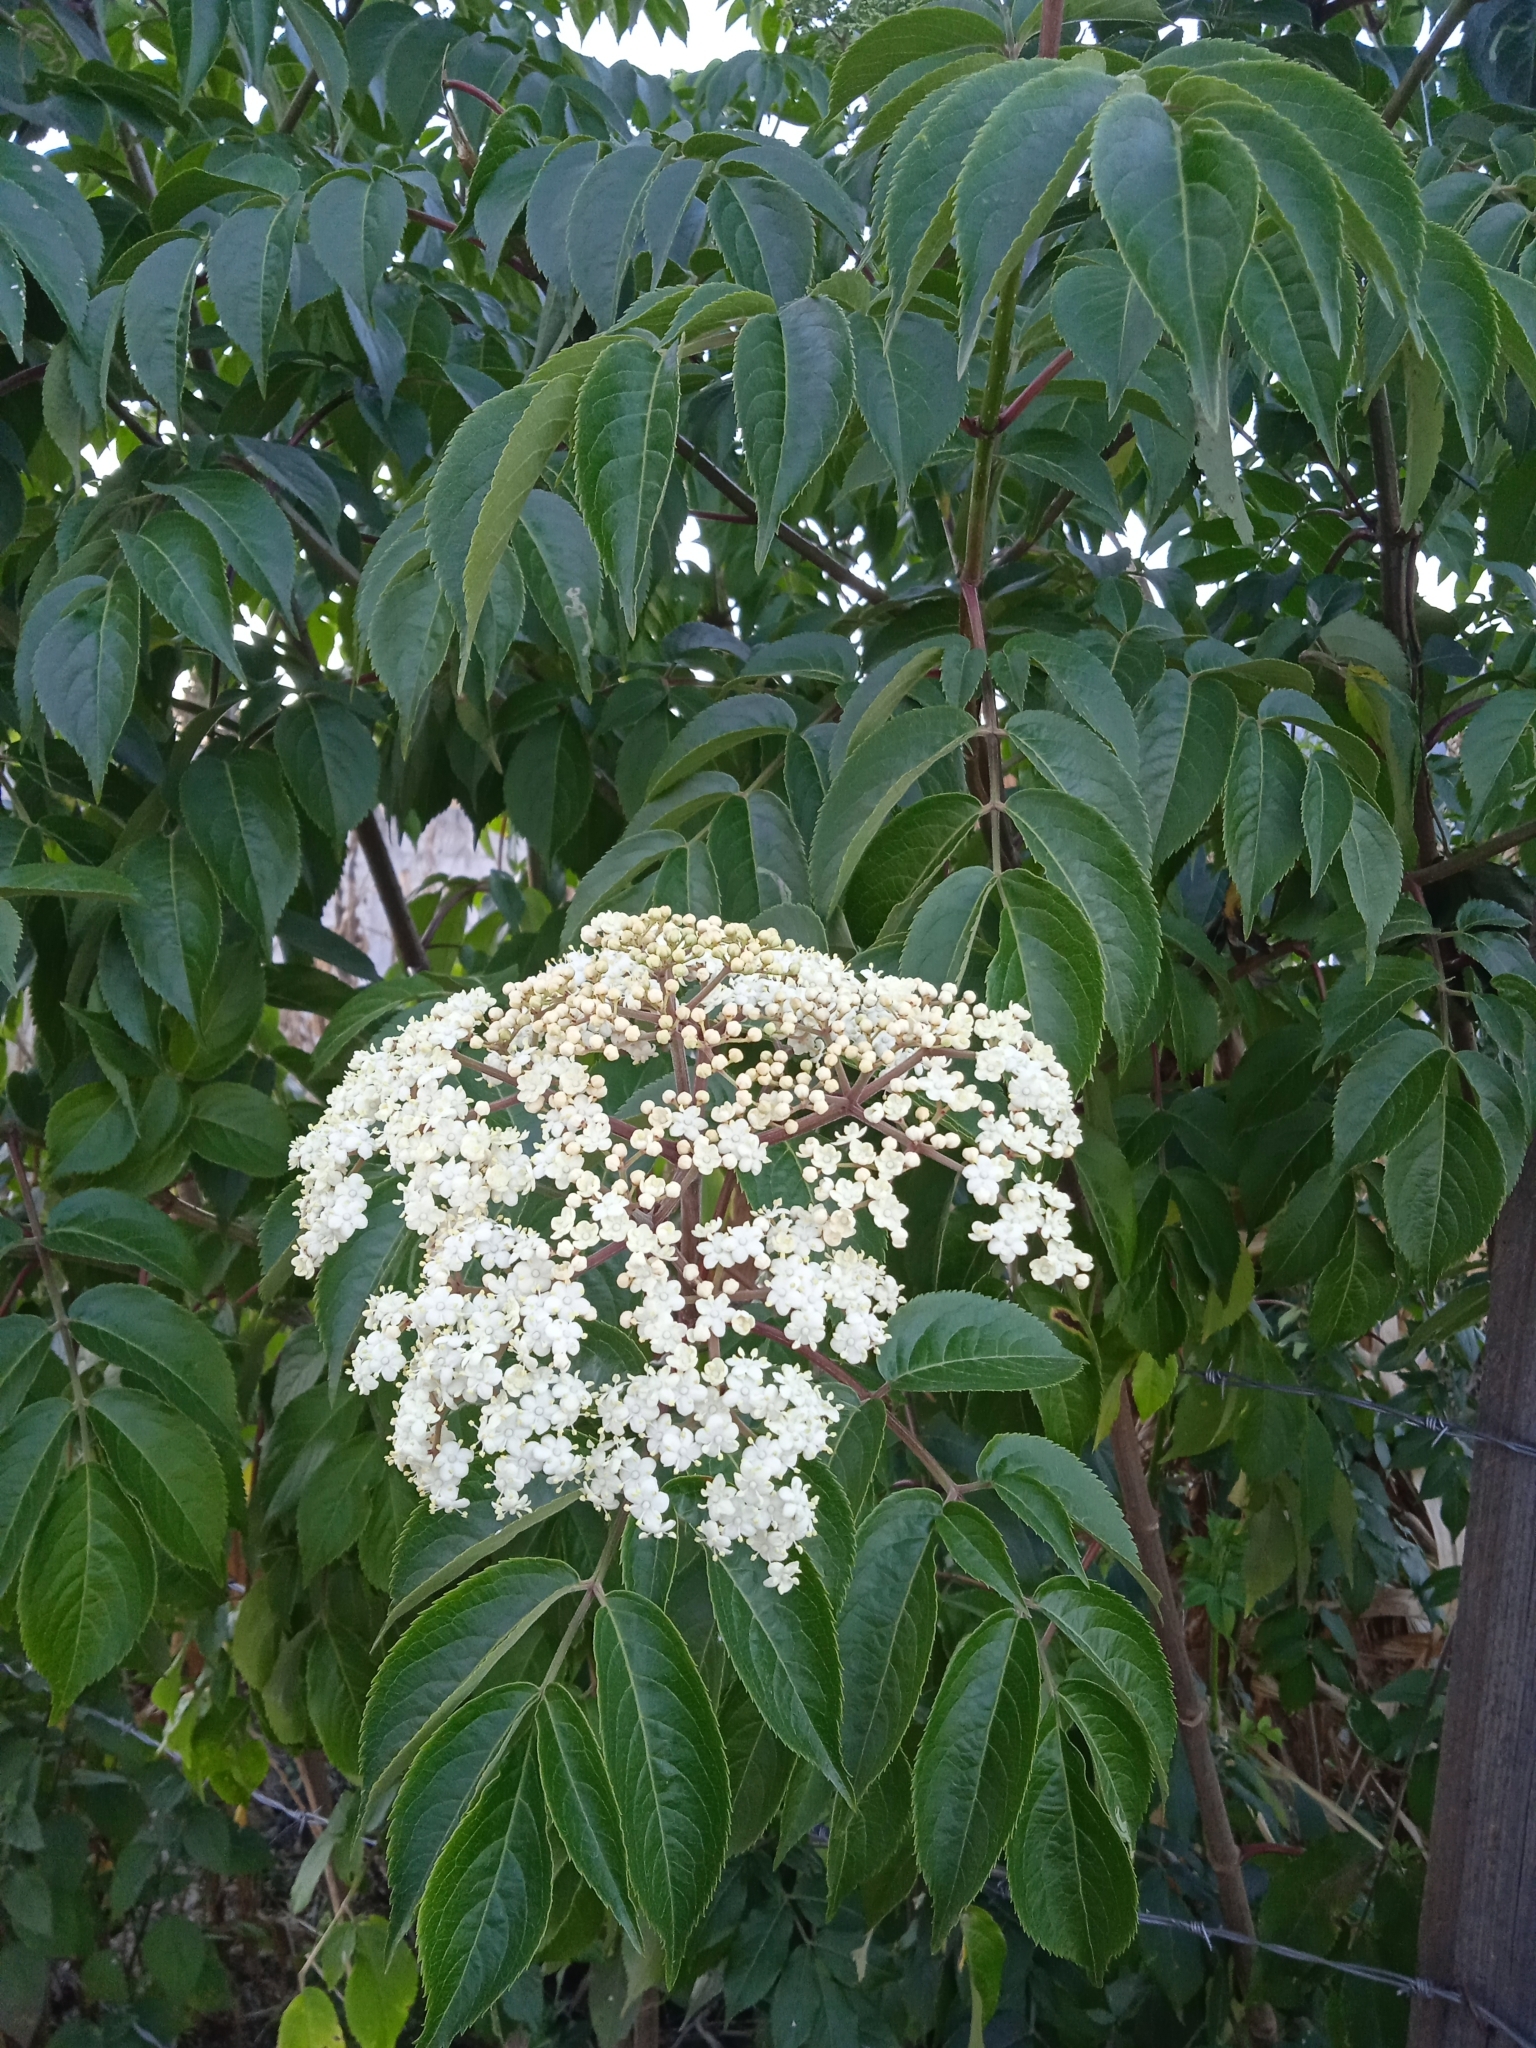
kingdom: Plantae
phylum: Tracheophyta
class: Magnoliopsida
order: Dipsacales
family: Viburnaceae
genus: Sambucus
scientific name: Sambucus canadensis
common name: American elder
